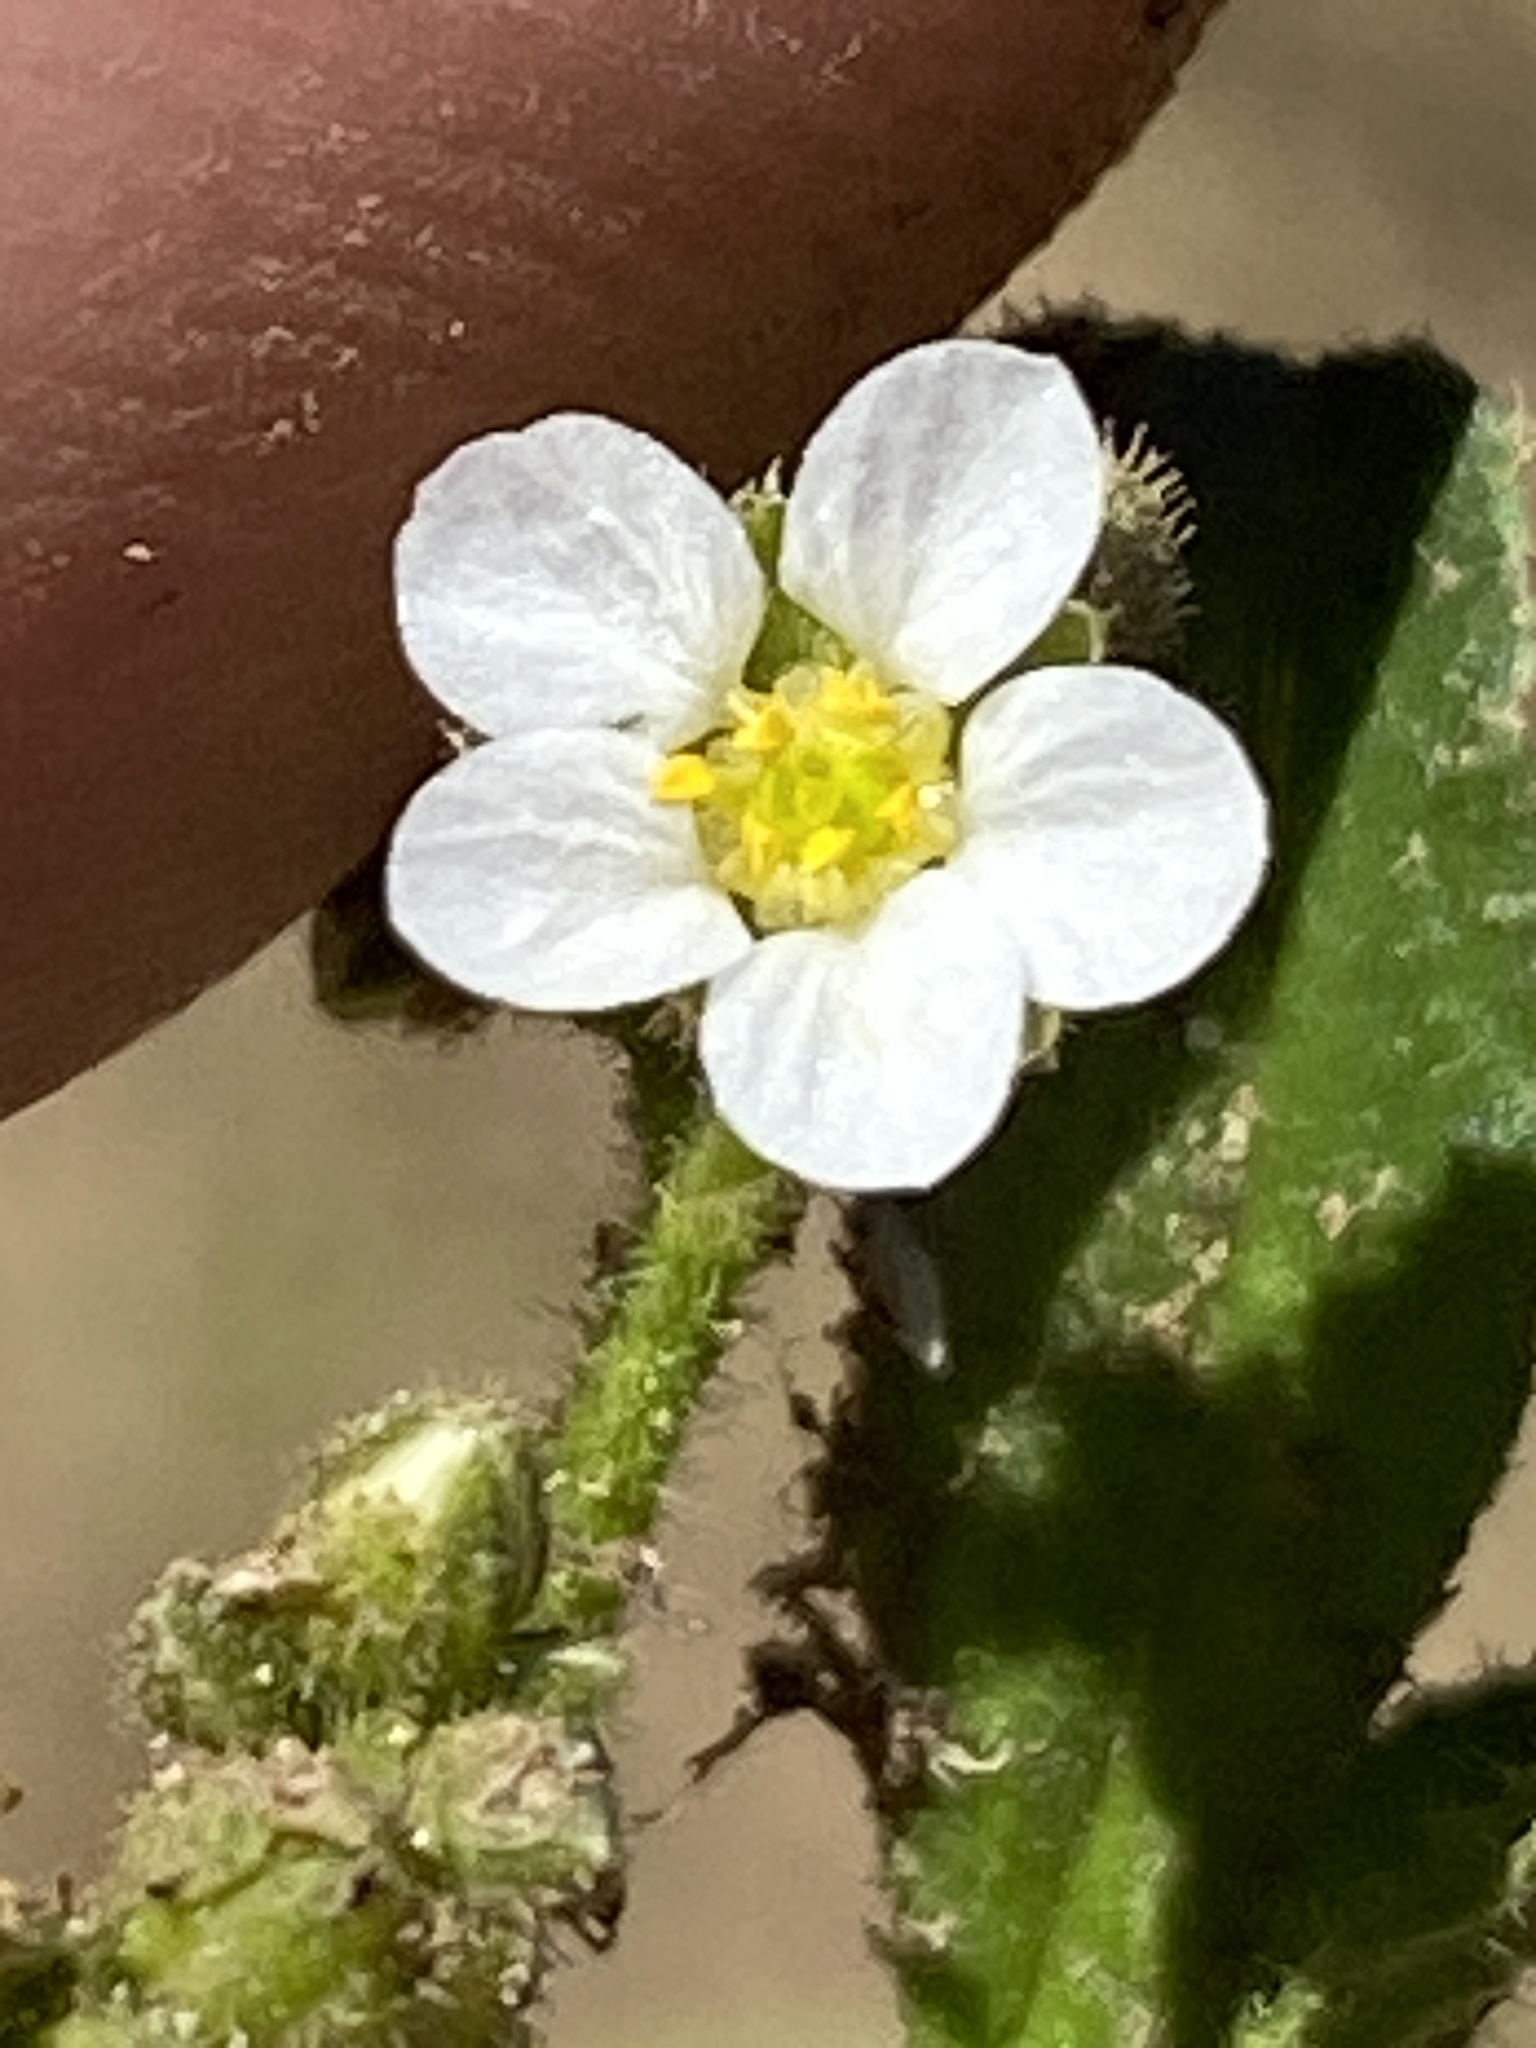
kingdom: Plantae
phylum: Tracheophyta
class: Magnoliopsida
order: Caryophyllales
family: Limeaceae
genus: Limeum
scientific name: Limeum myosotis
